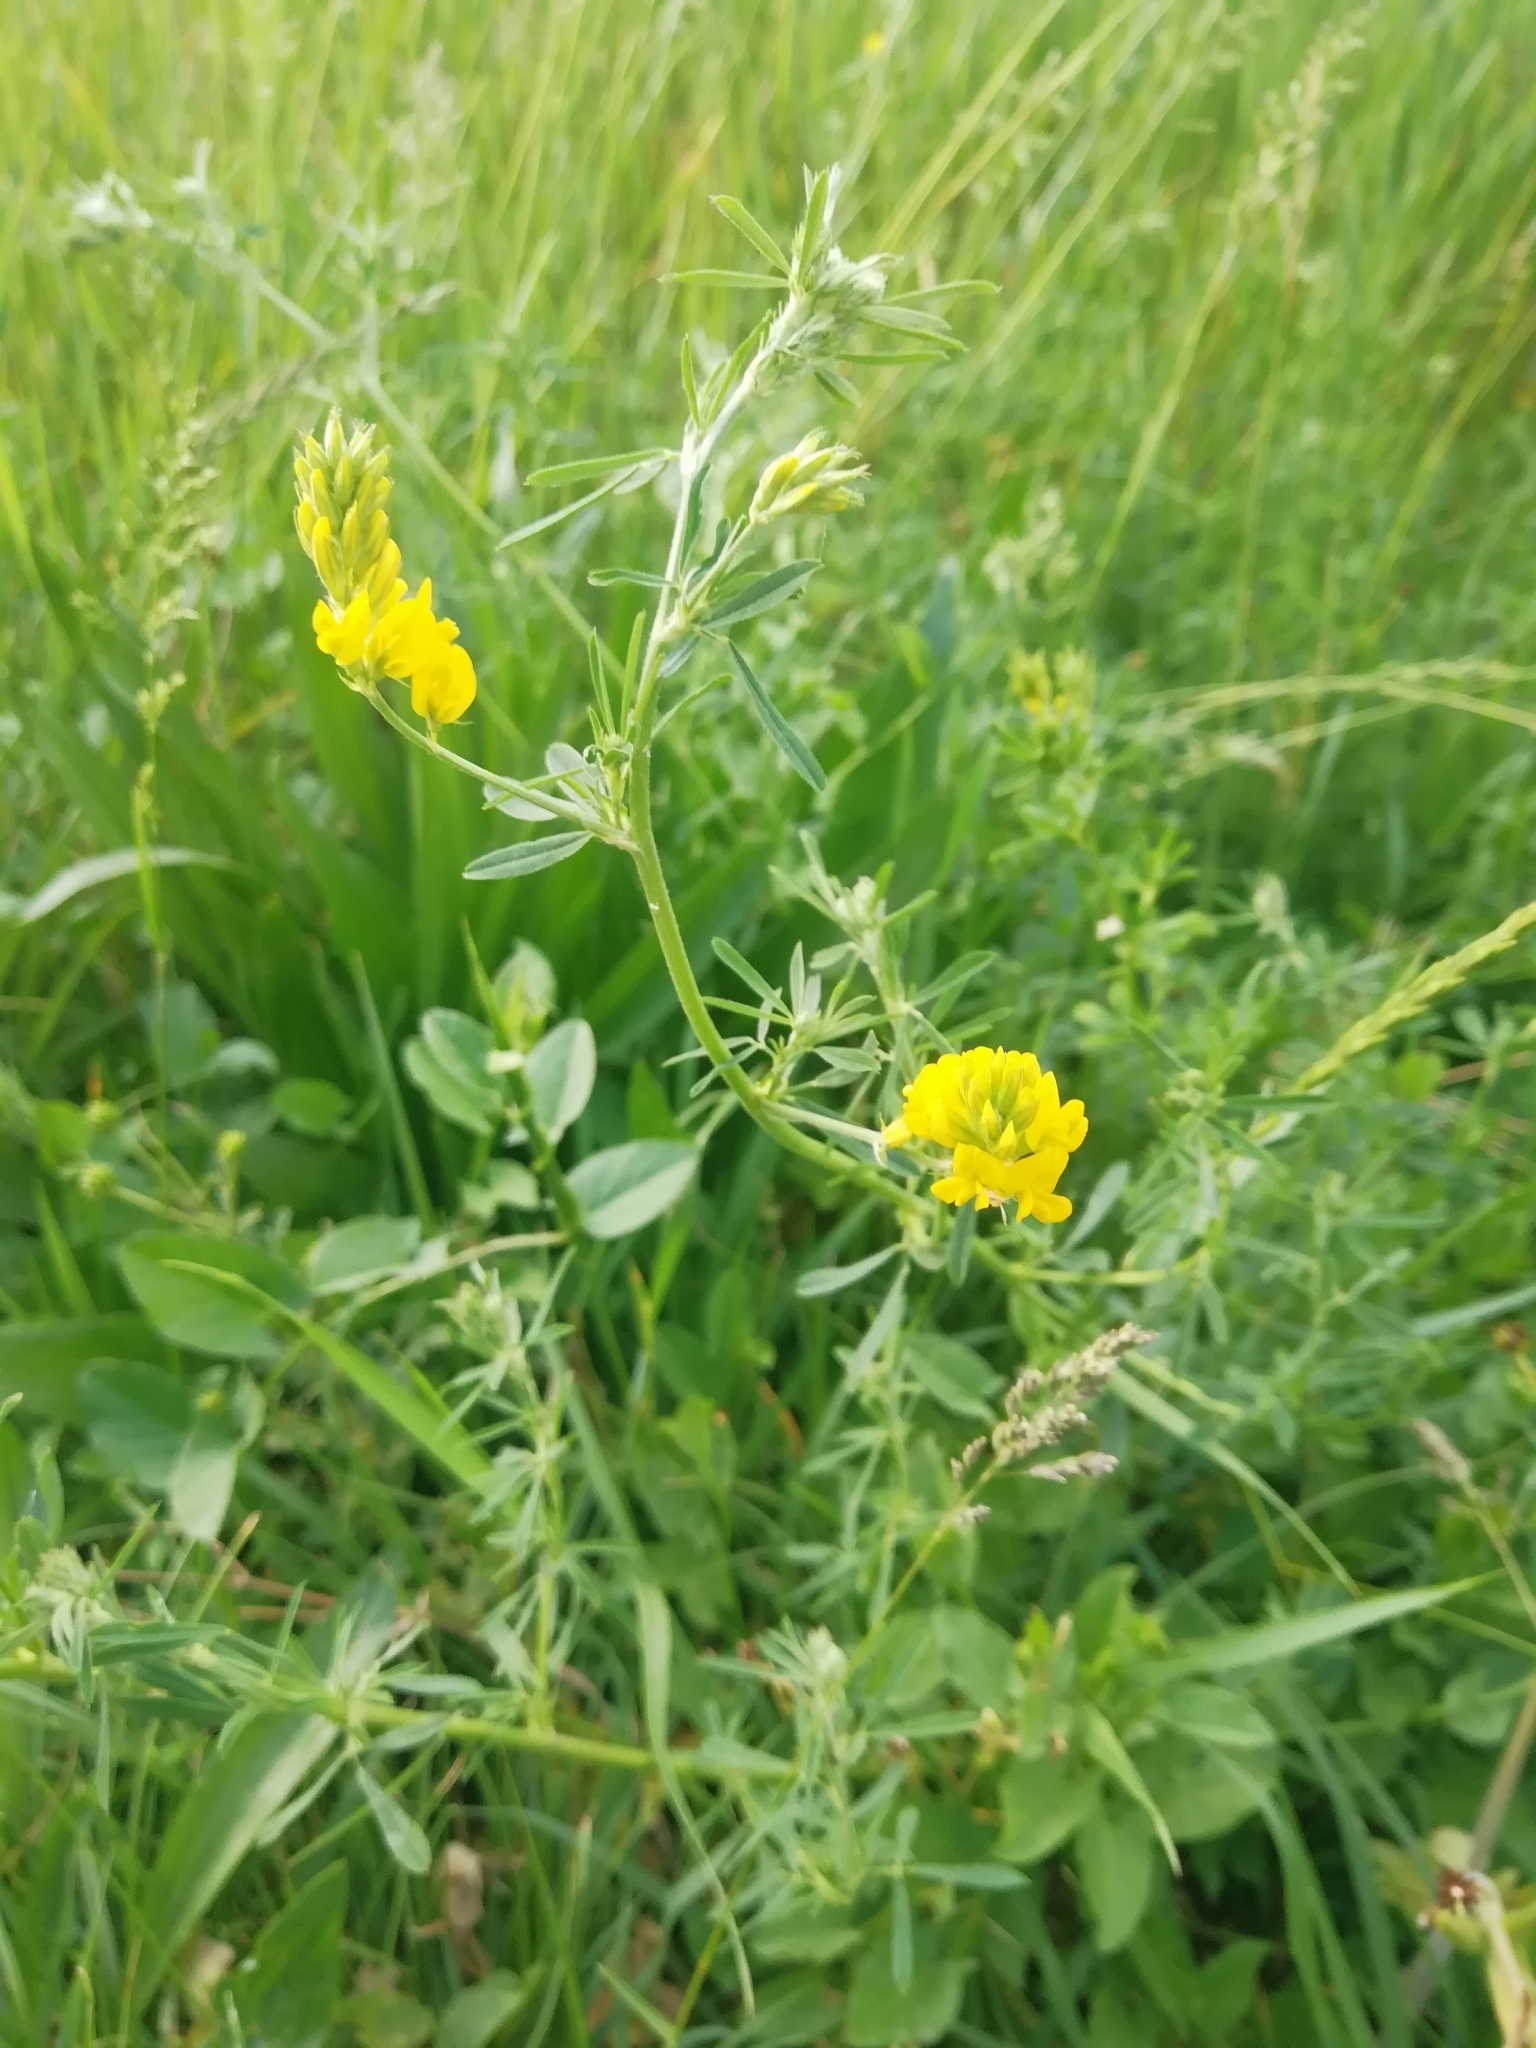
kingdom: Plantae
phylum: Tracheophyta
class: Magnoliopsida
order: Fabales
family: Fabaceae
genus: Medicago
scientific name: Medicago falcata
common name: Sickle medick
